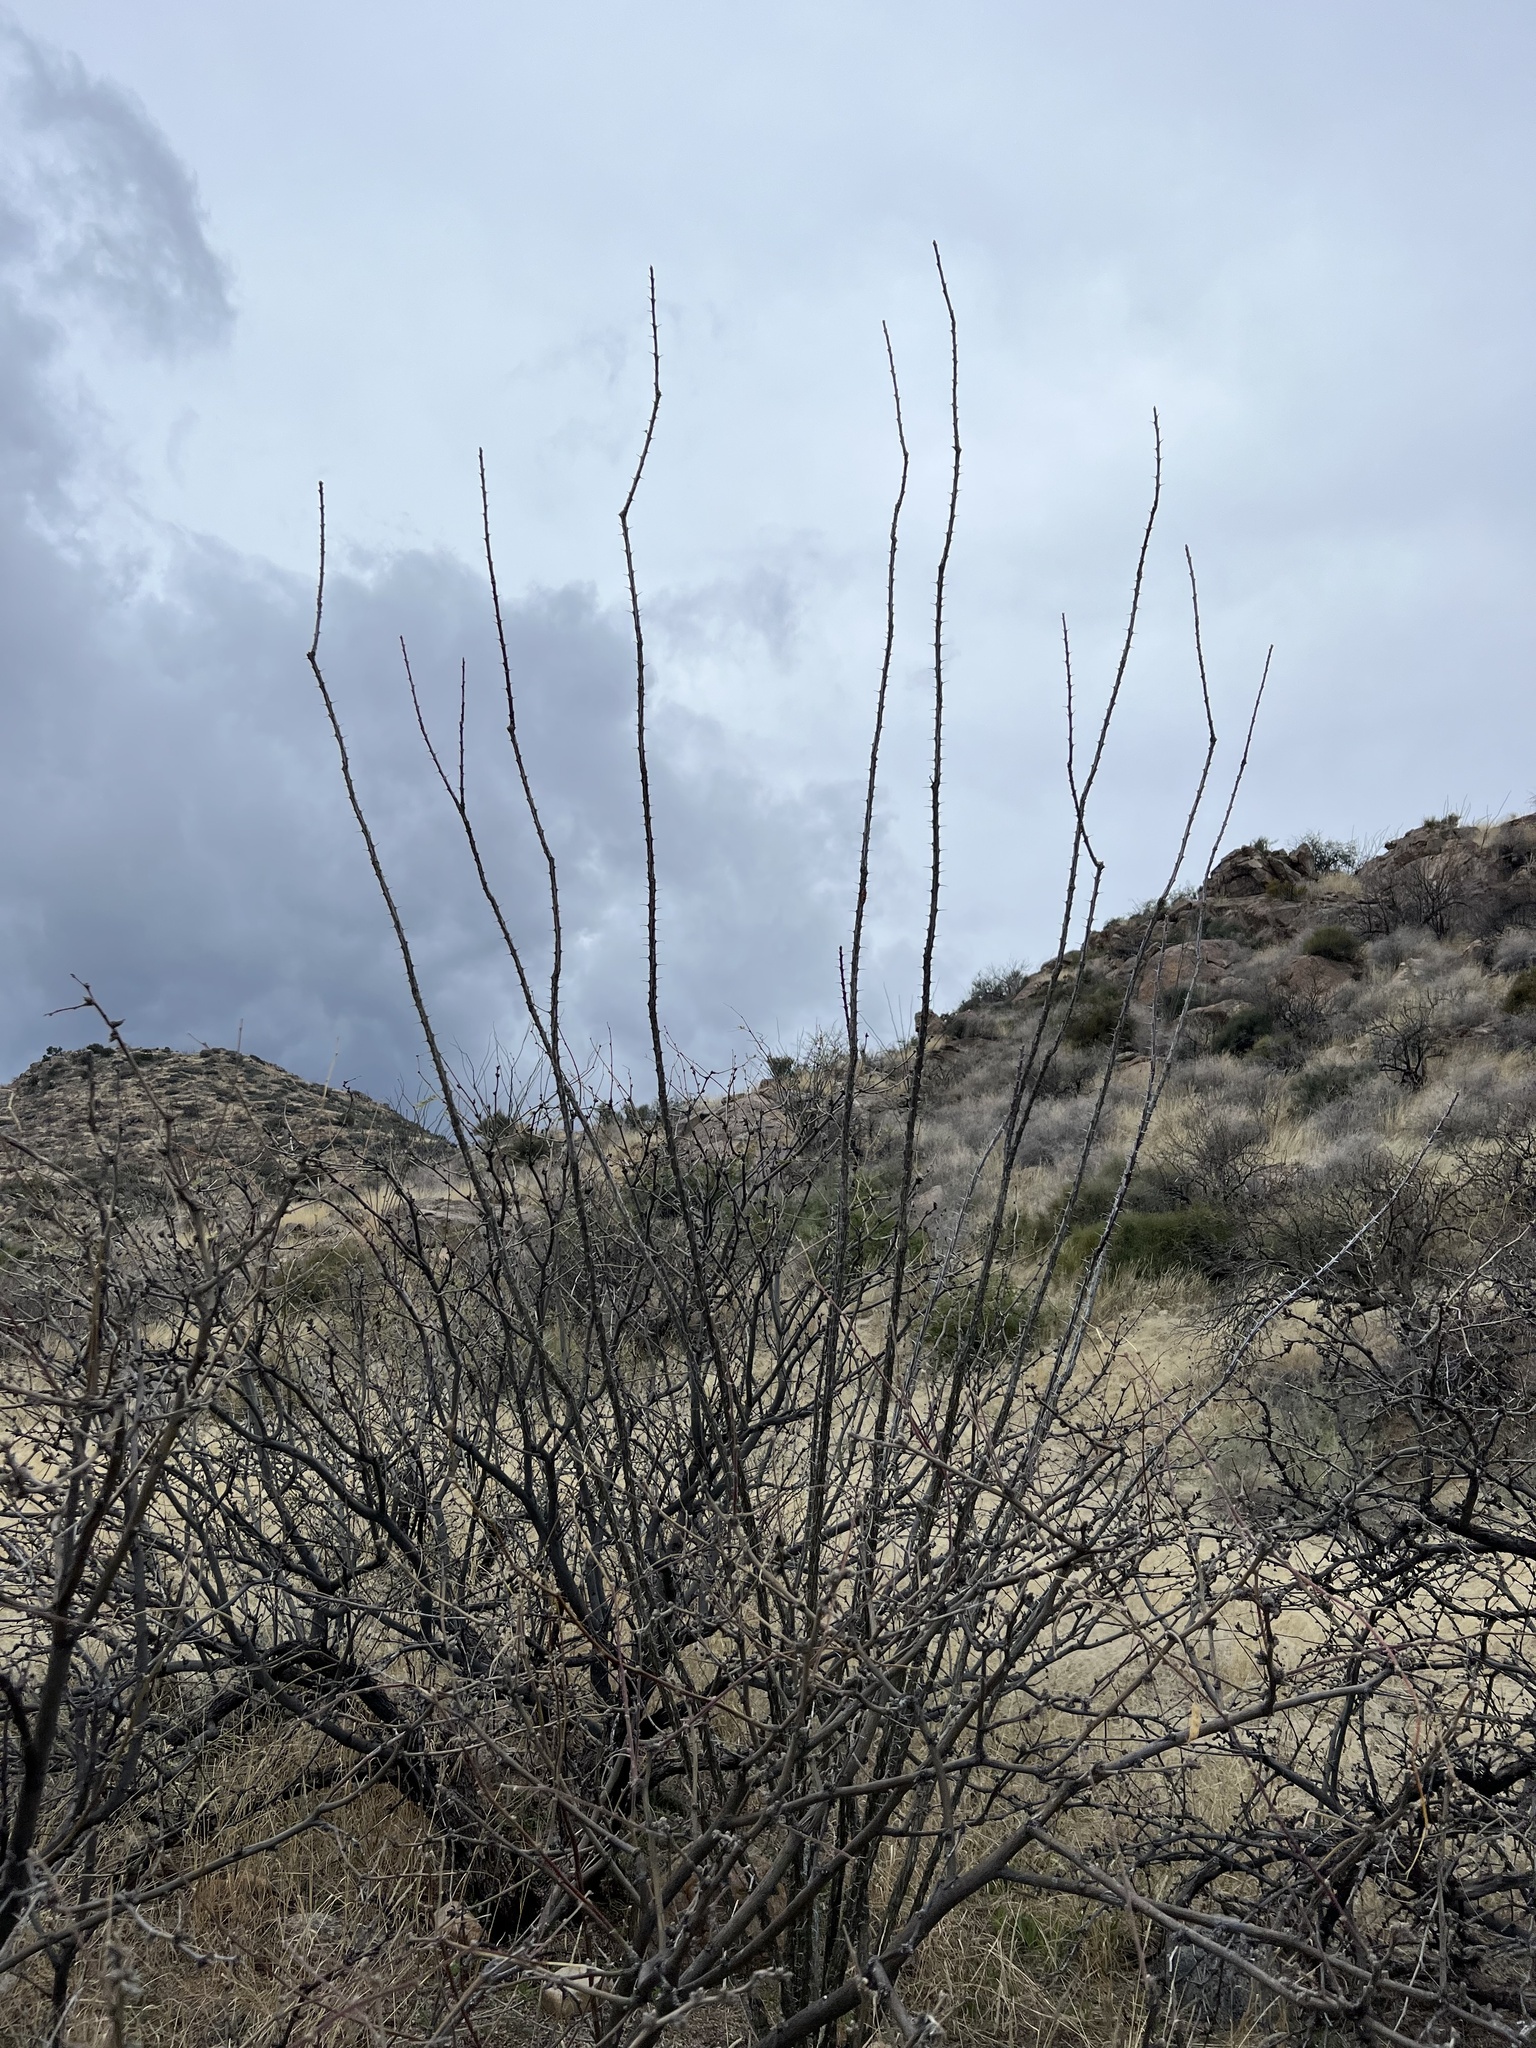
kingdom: Plantae
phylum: Tracheophyta
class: Magnoliopsida
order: Ericales
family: Fouquieriaceae
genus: Fouquieria
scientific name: Fouquieria splendens
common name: Vine-cactus
